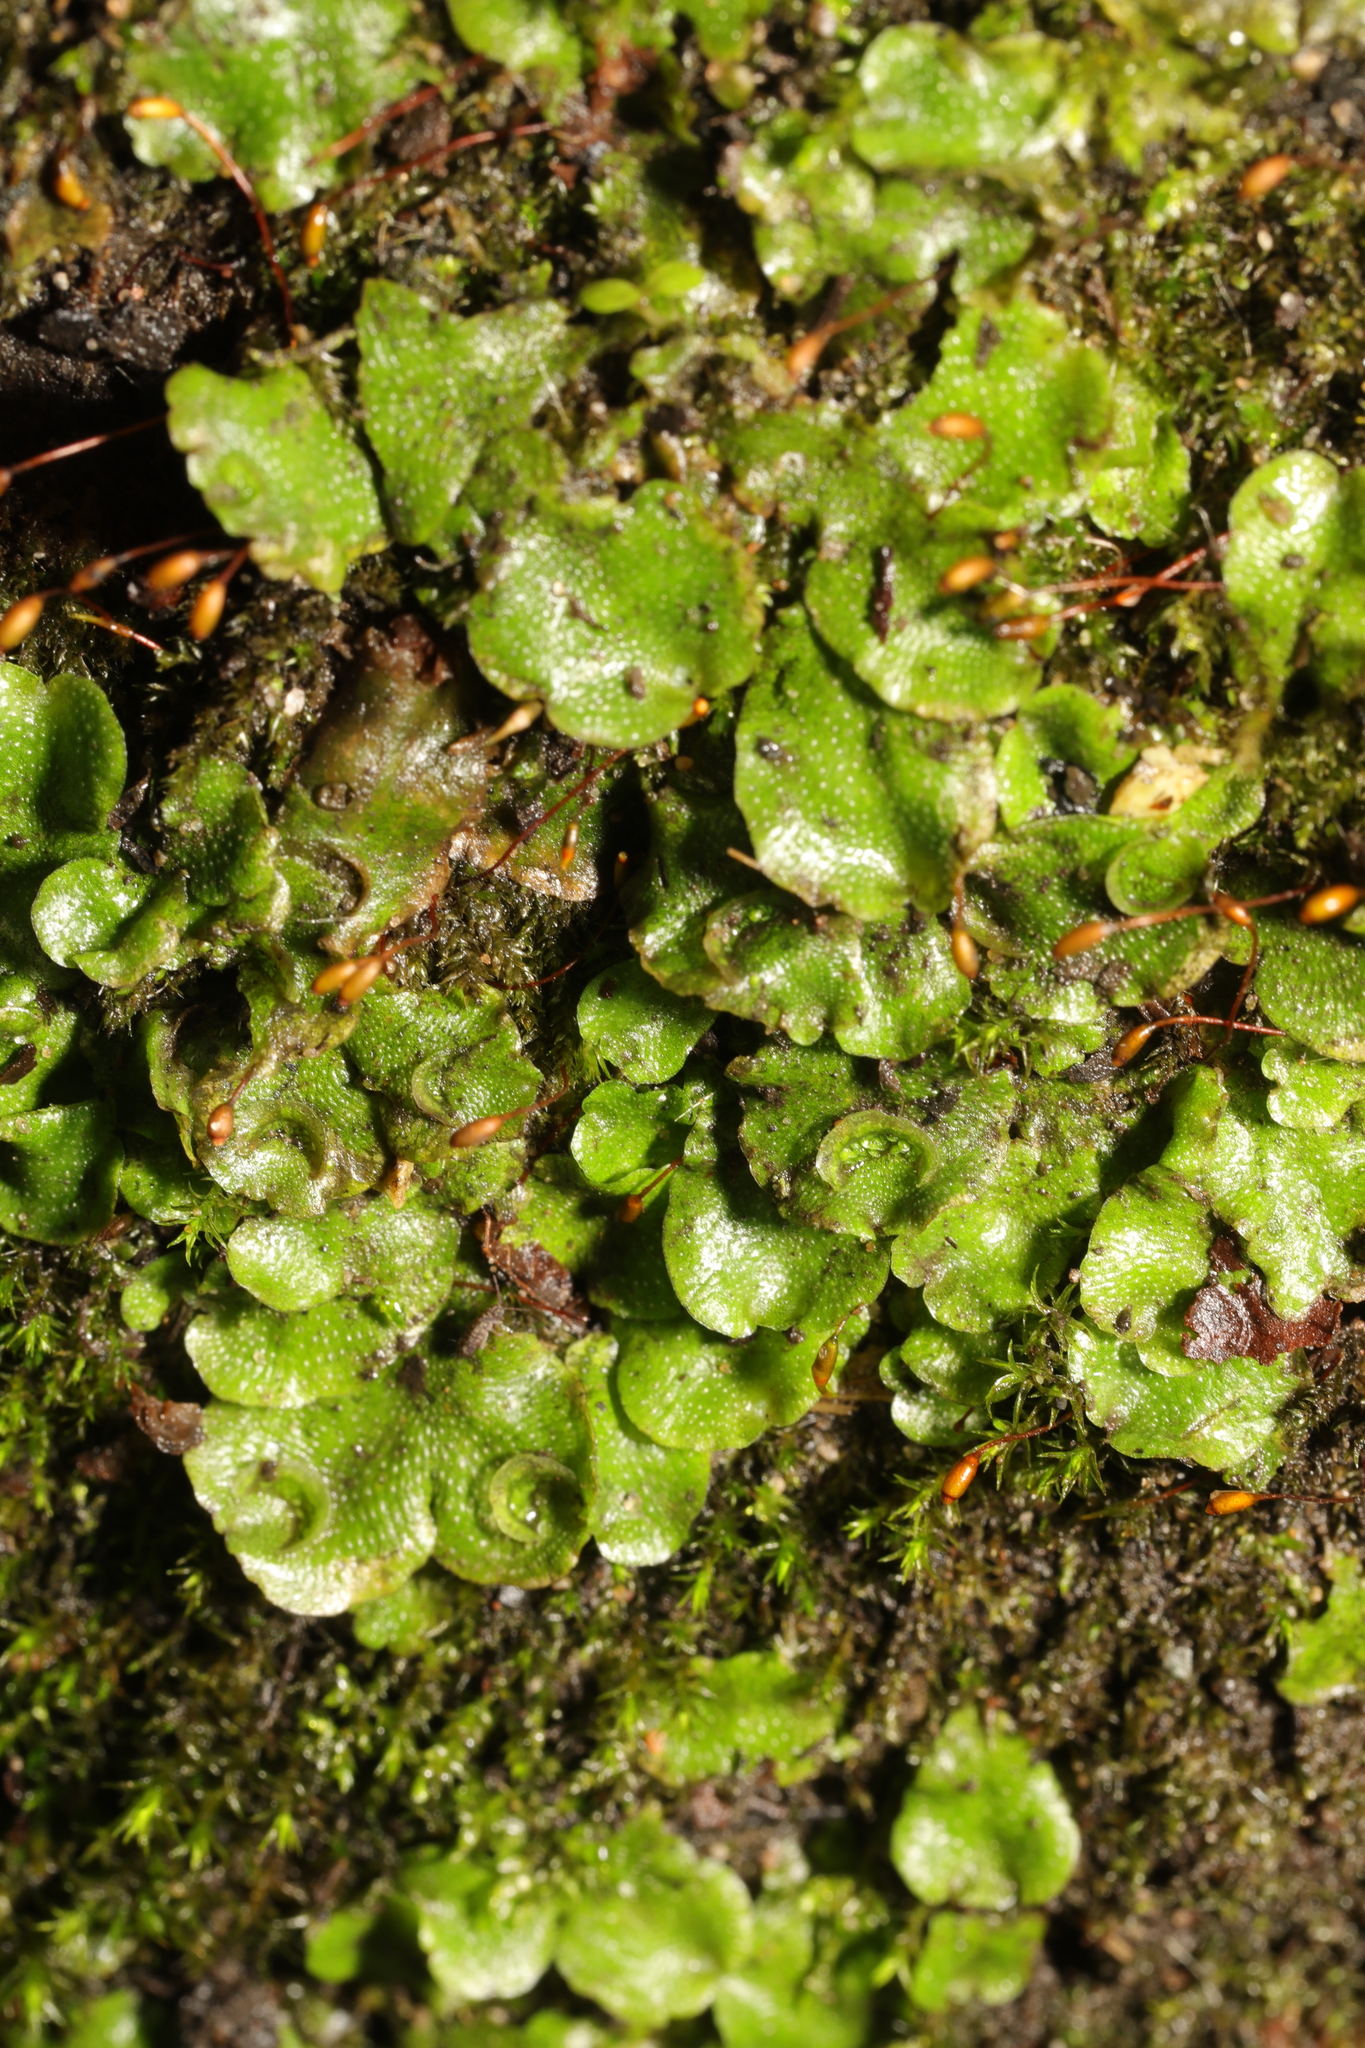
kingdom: Plantae
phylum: Marchantiophyta
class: Marchantiopsida
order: Lunulariales
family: Lunulariaceae
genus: Lunularia
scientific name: Lunularia cruciata
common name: Crescent-cup liverwort
